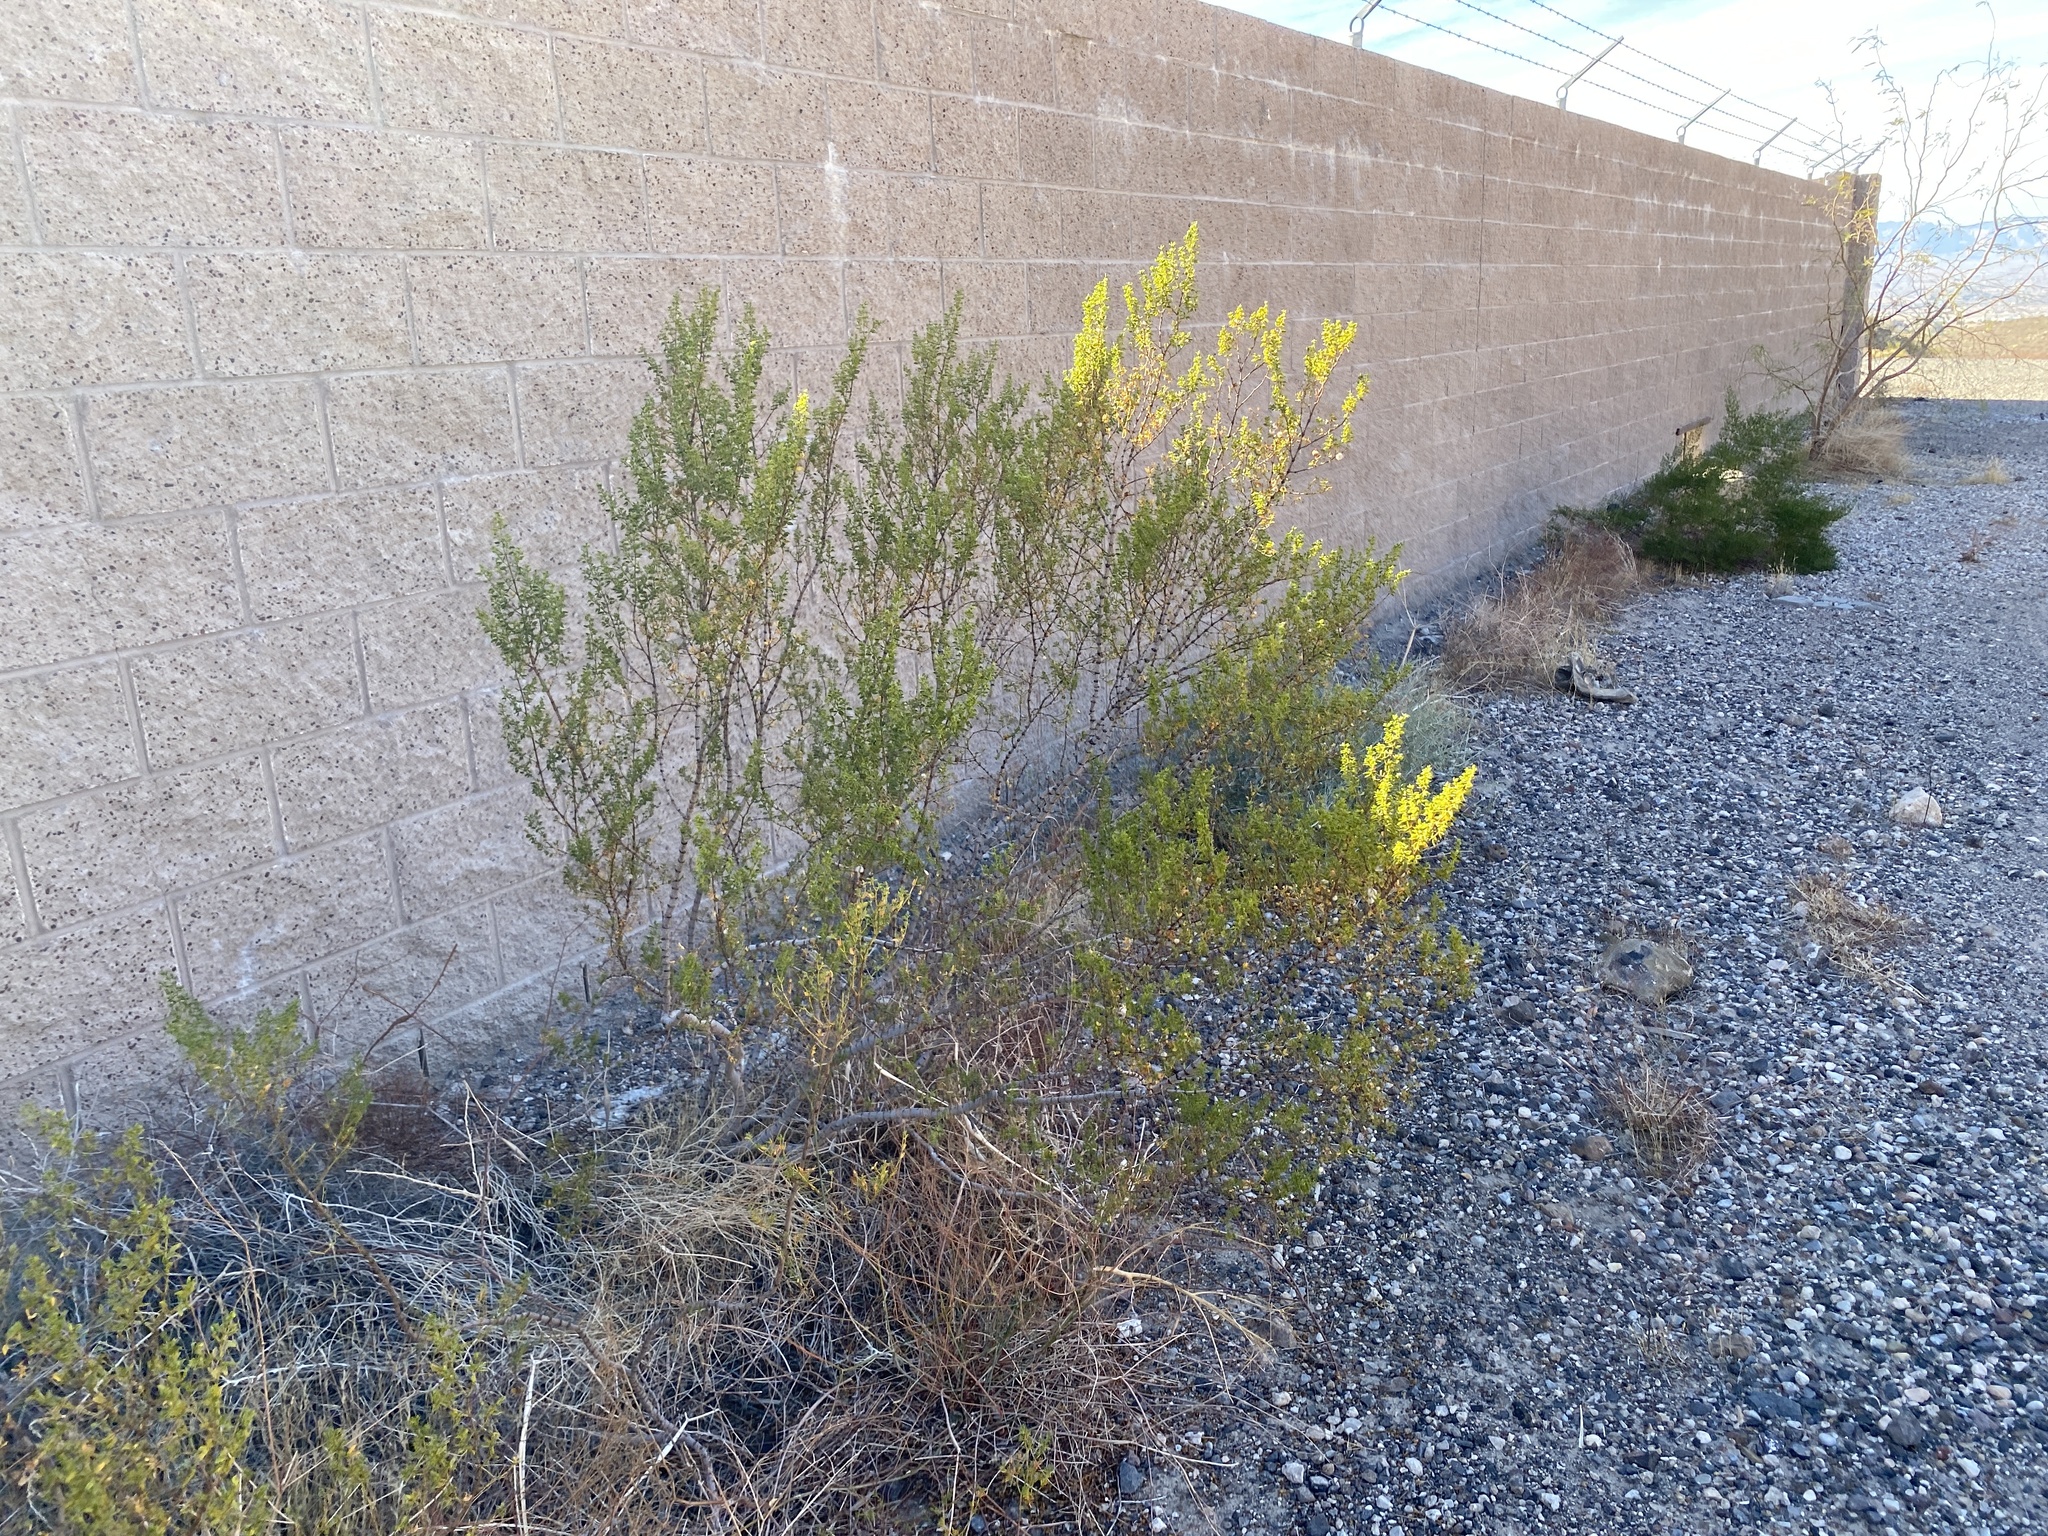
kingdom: Plantae
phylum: Tracheophyta
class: Magnoliopsida
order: Zygophyllales
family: Zygophyllaceae
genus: Larrea
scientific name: Larrea tridentata
